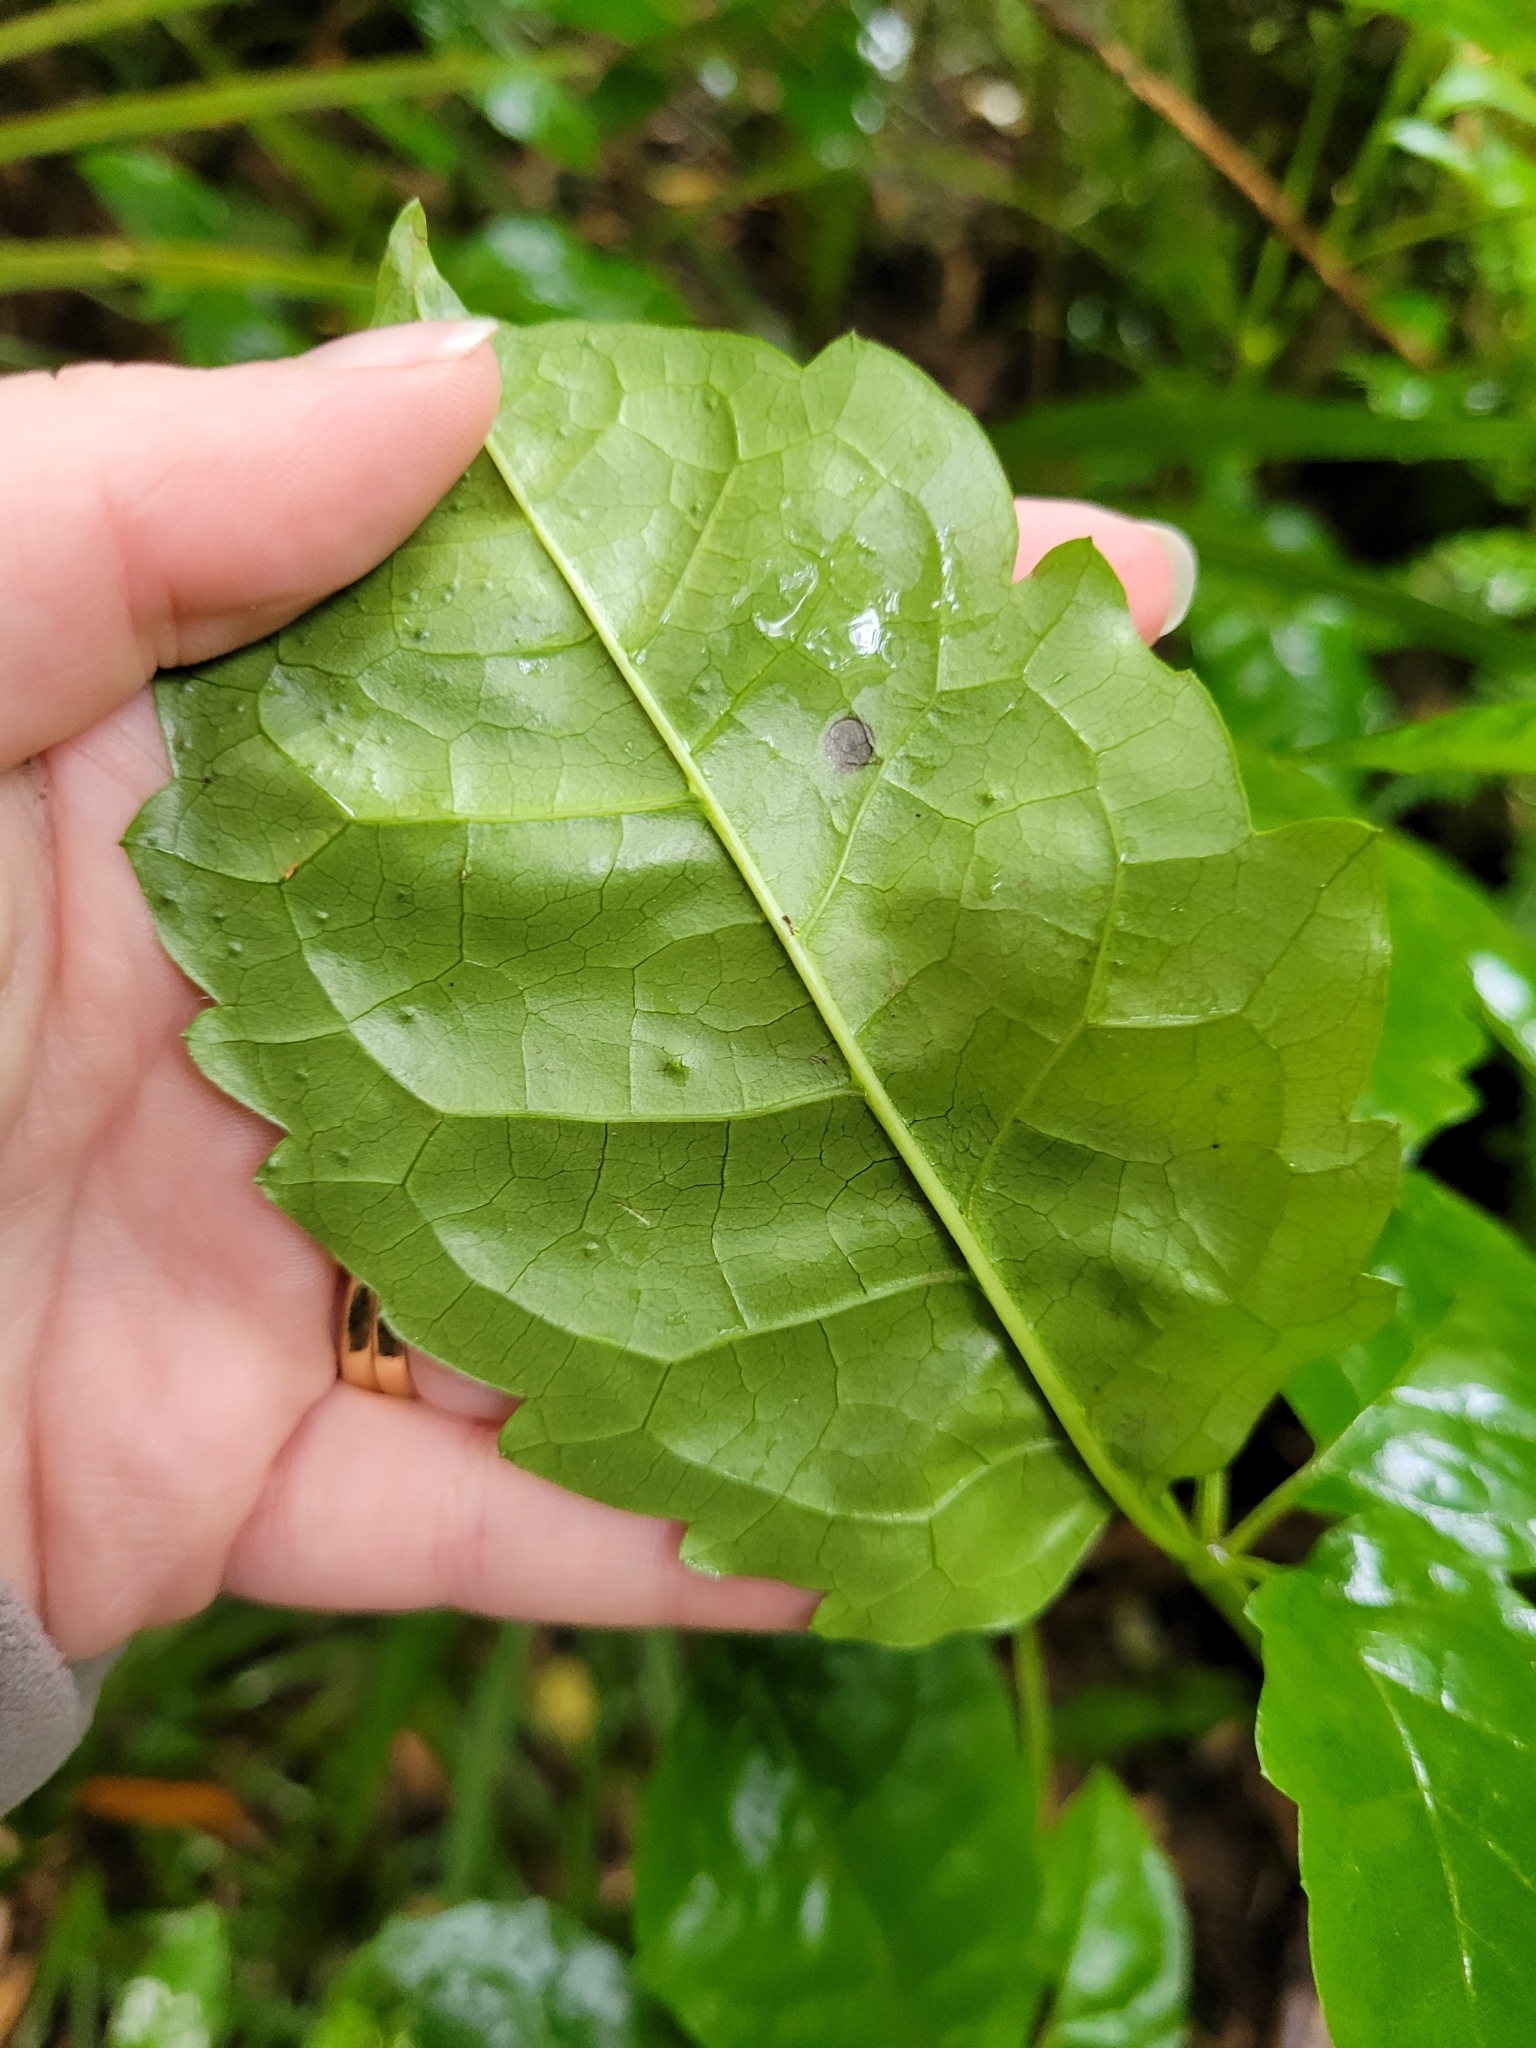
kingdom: Plantae
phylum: Tracheophyta
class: Magnoliopsida
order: Apiales
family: Araliaceae
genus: Neopanax
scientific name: Neopanax arboreus
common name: Five-fingers
